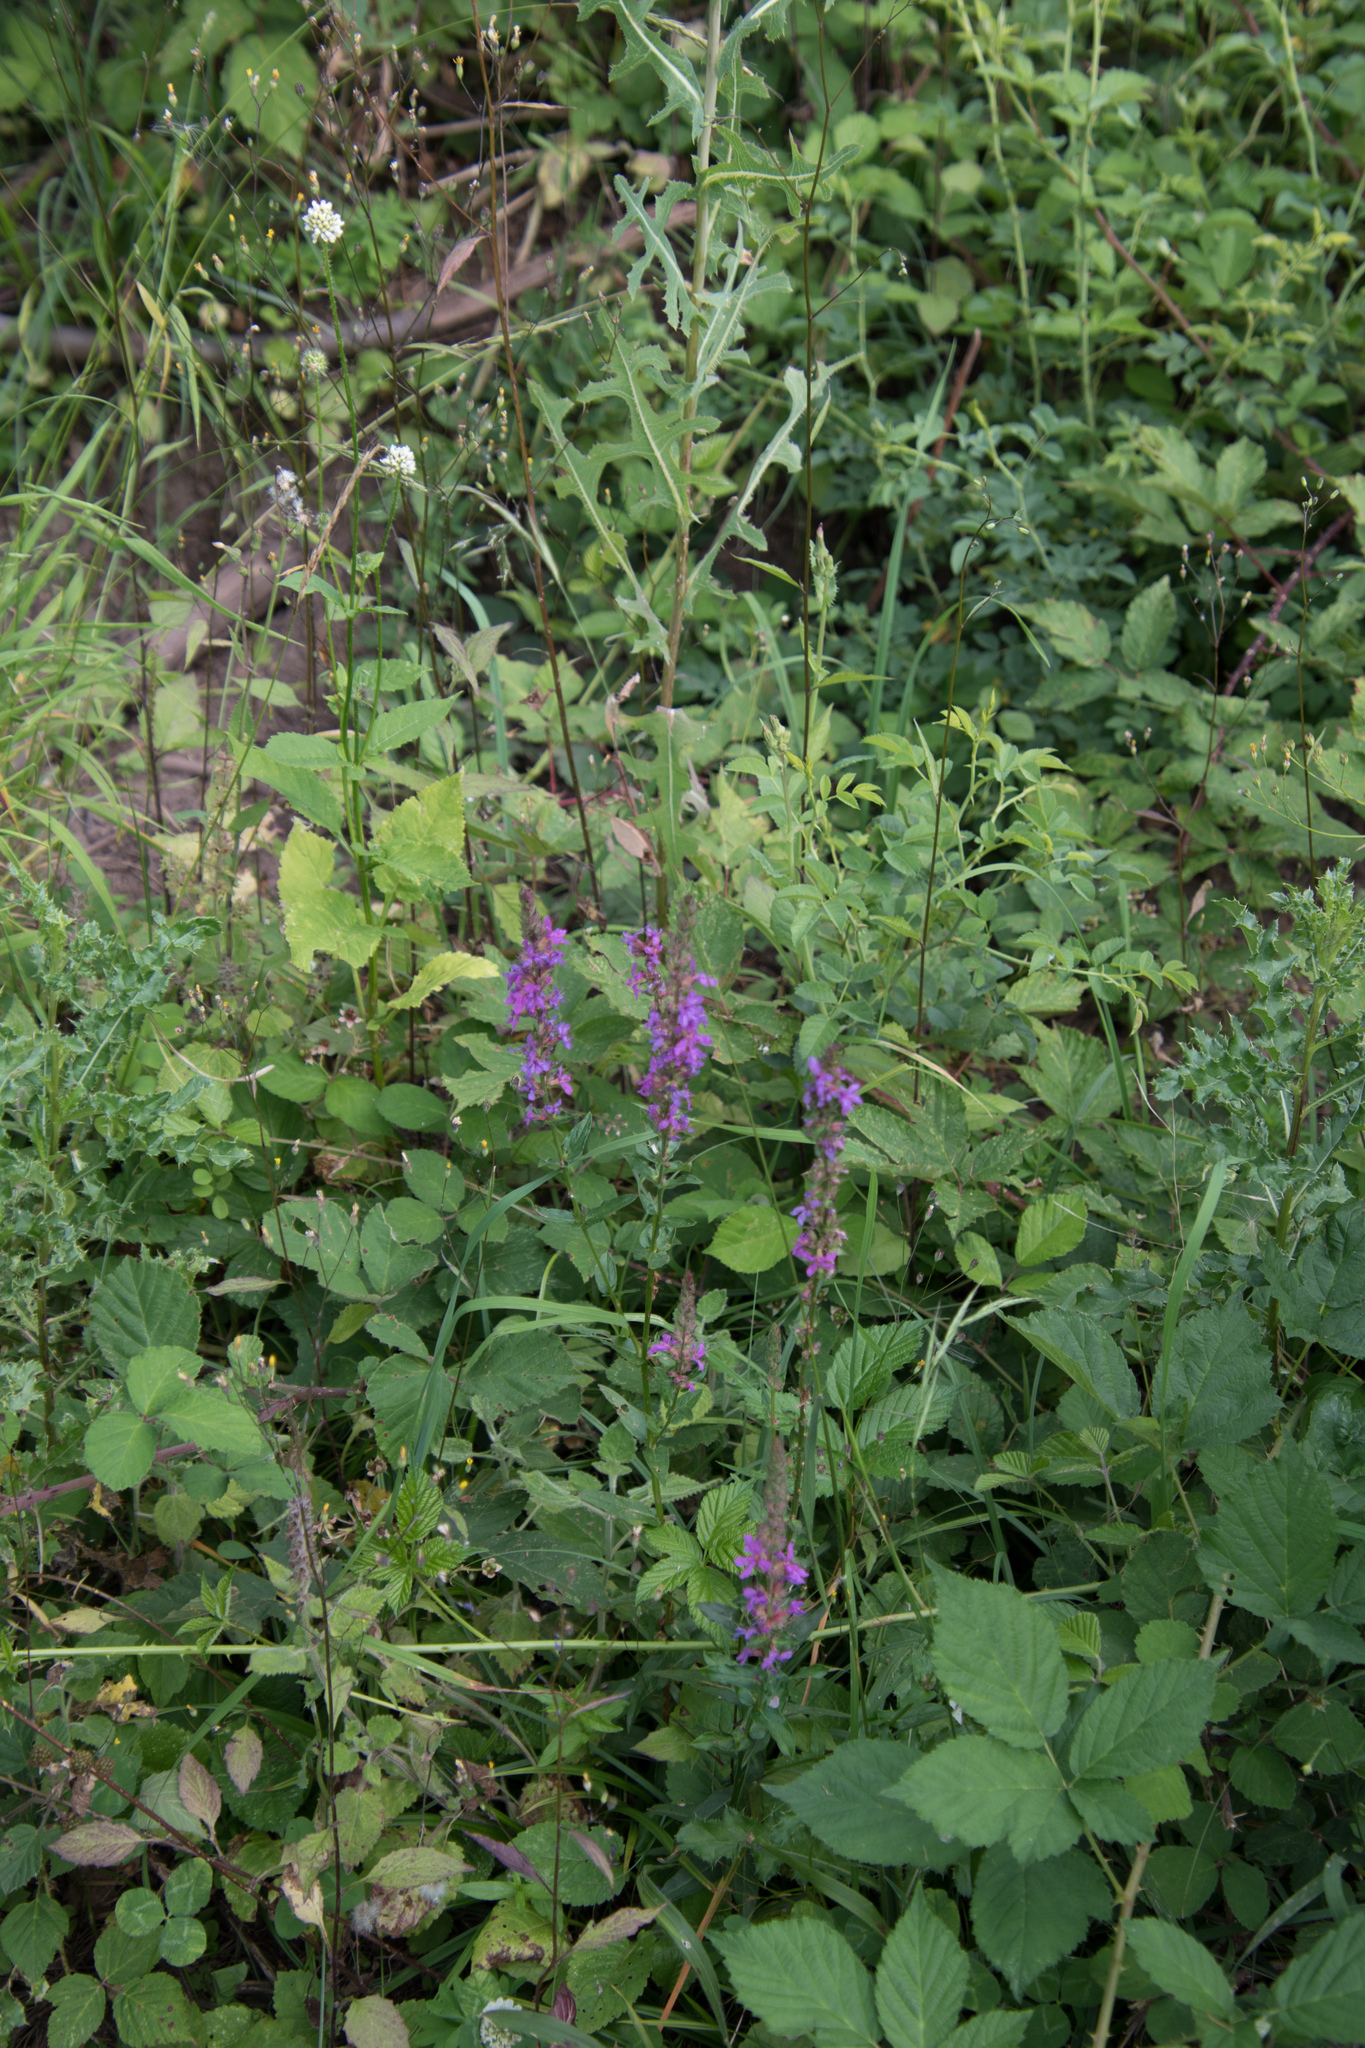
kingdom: Plantae
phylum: Tracheophyta
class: Magnoliopsida
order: Myrtales
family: Lythraceae
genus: Lythrum
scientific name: Lythrum salicaria
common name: Purple loosestrife
